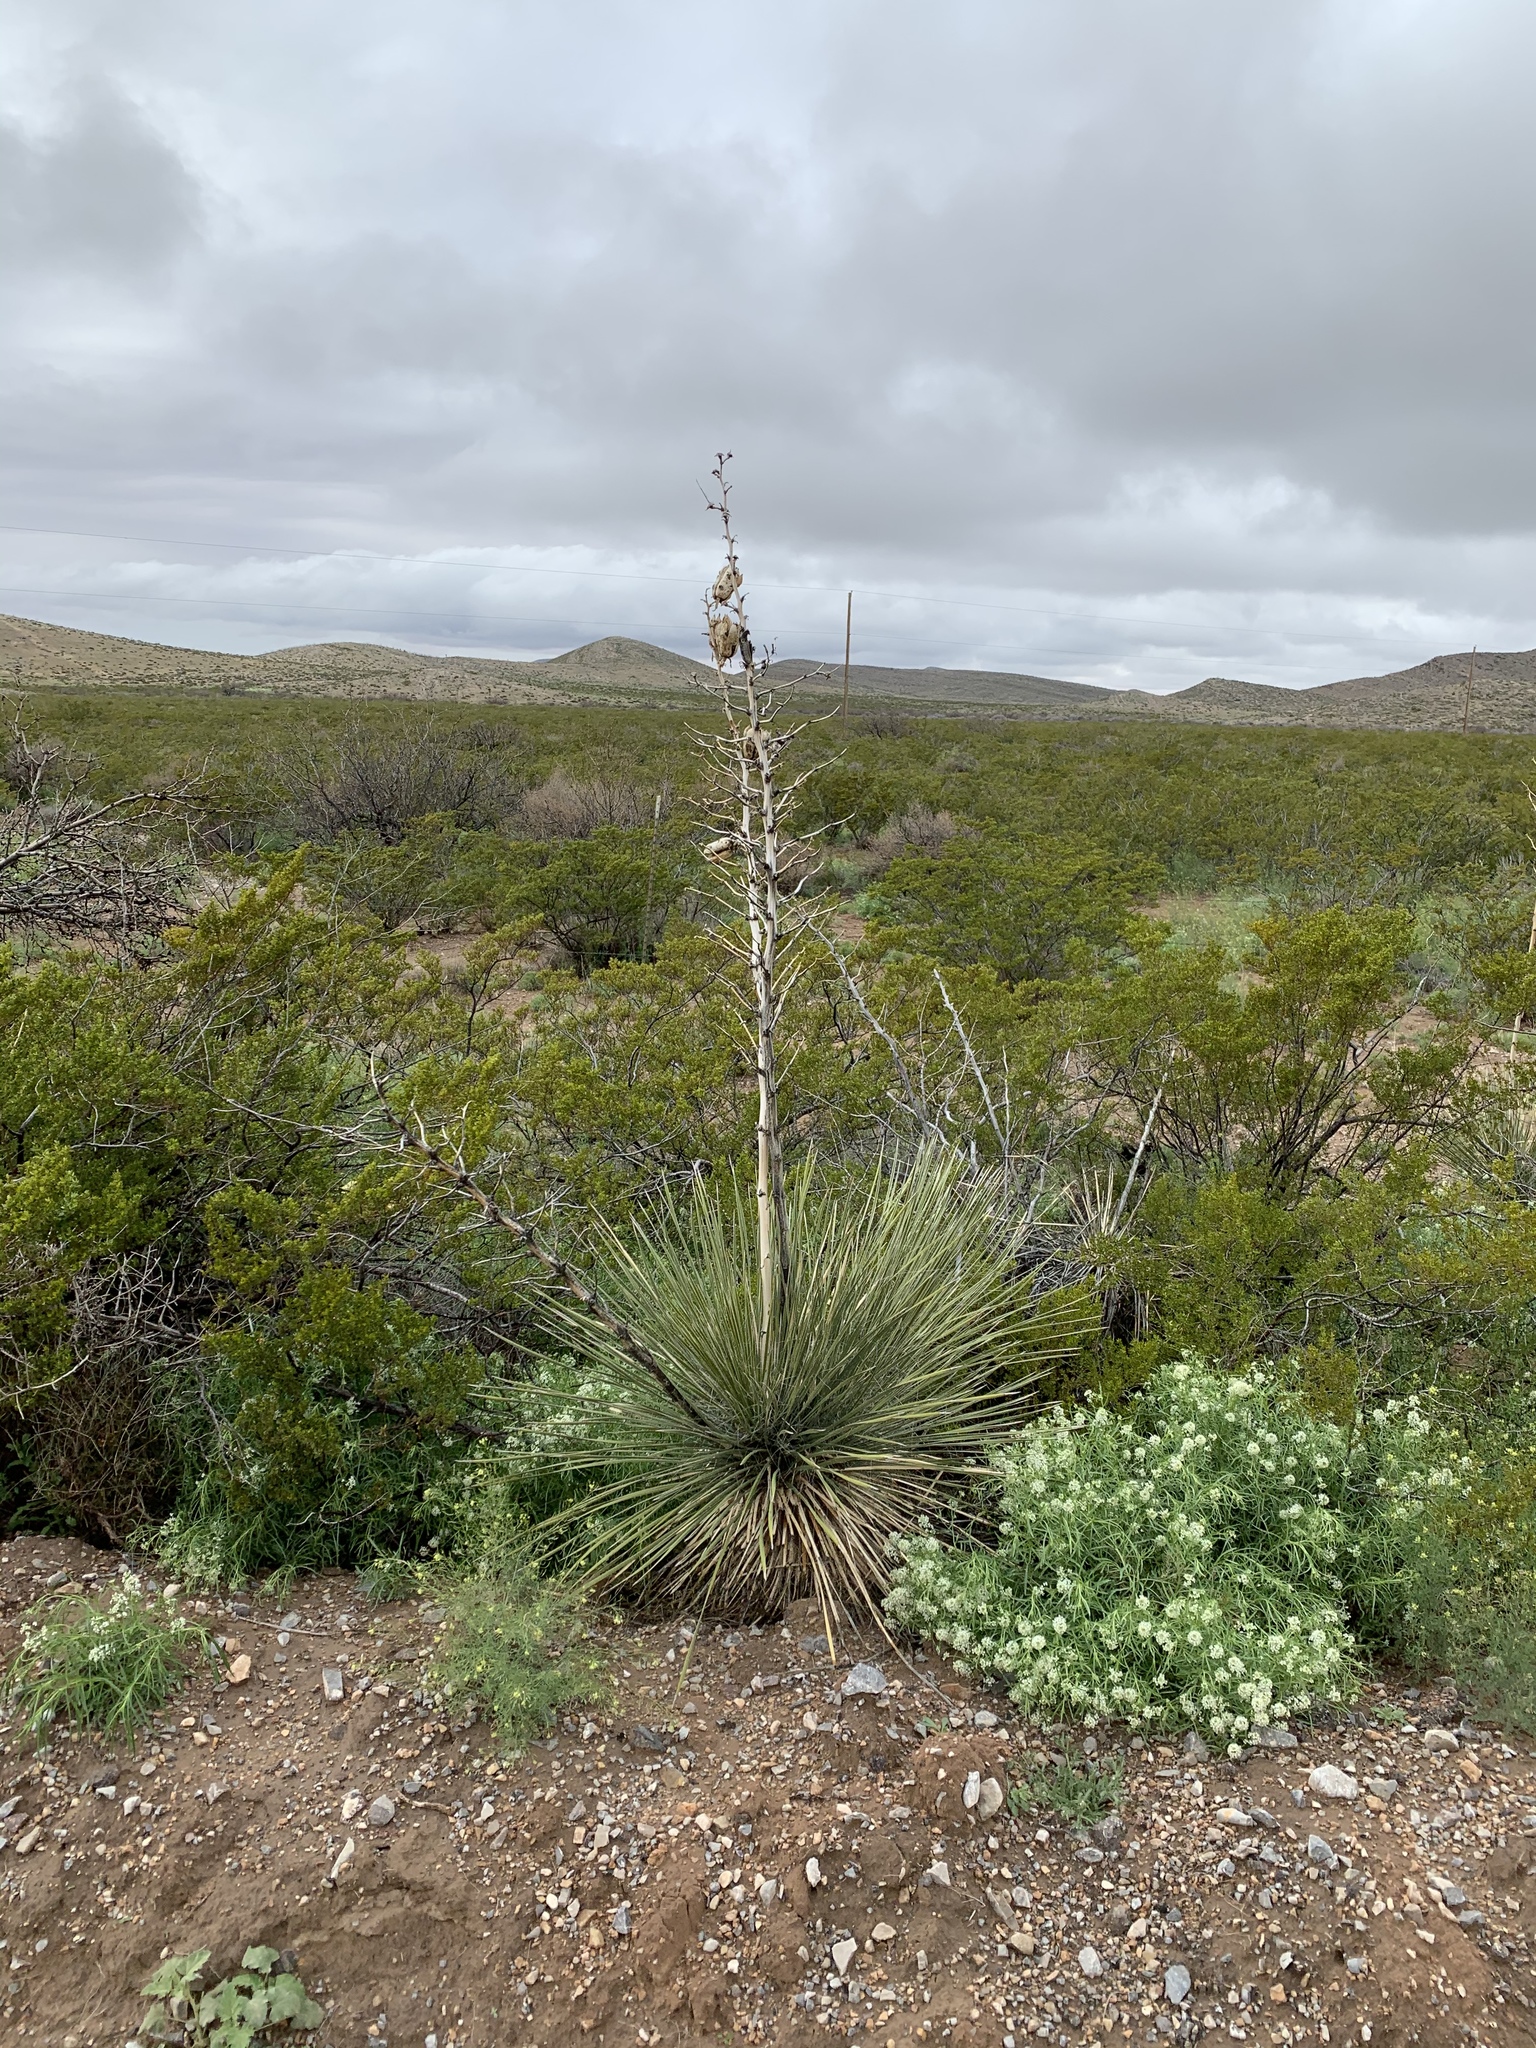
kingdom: Plantae
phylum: Tracheophyta
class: Liliopsida
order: Asparagales
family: Asparagaceae
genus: Yucca
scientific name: Yucca elata
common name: Palmella
